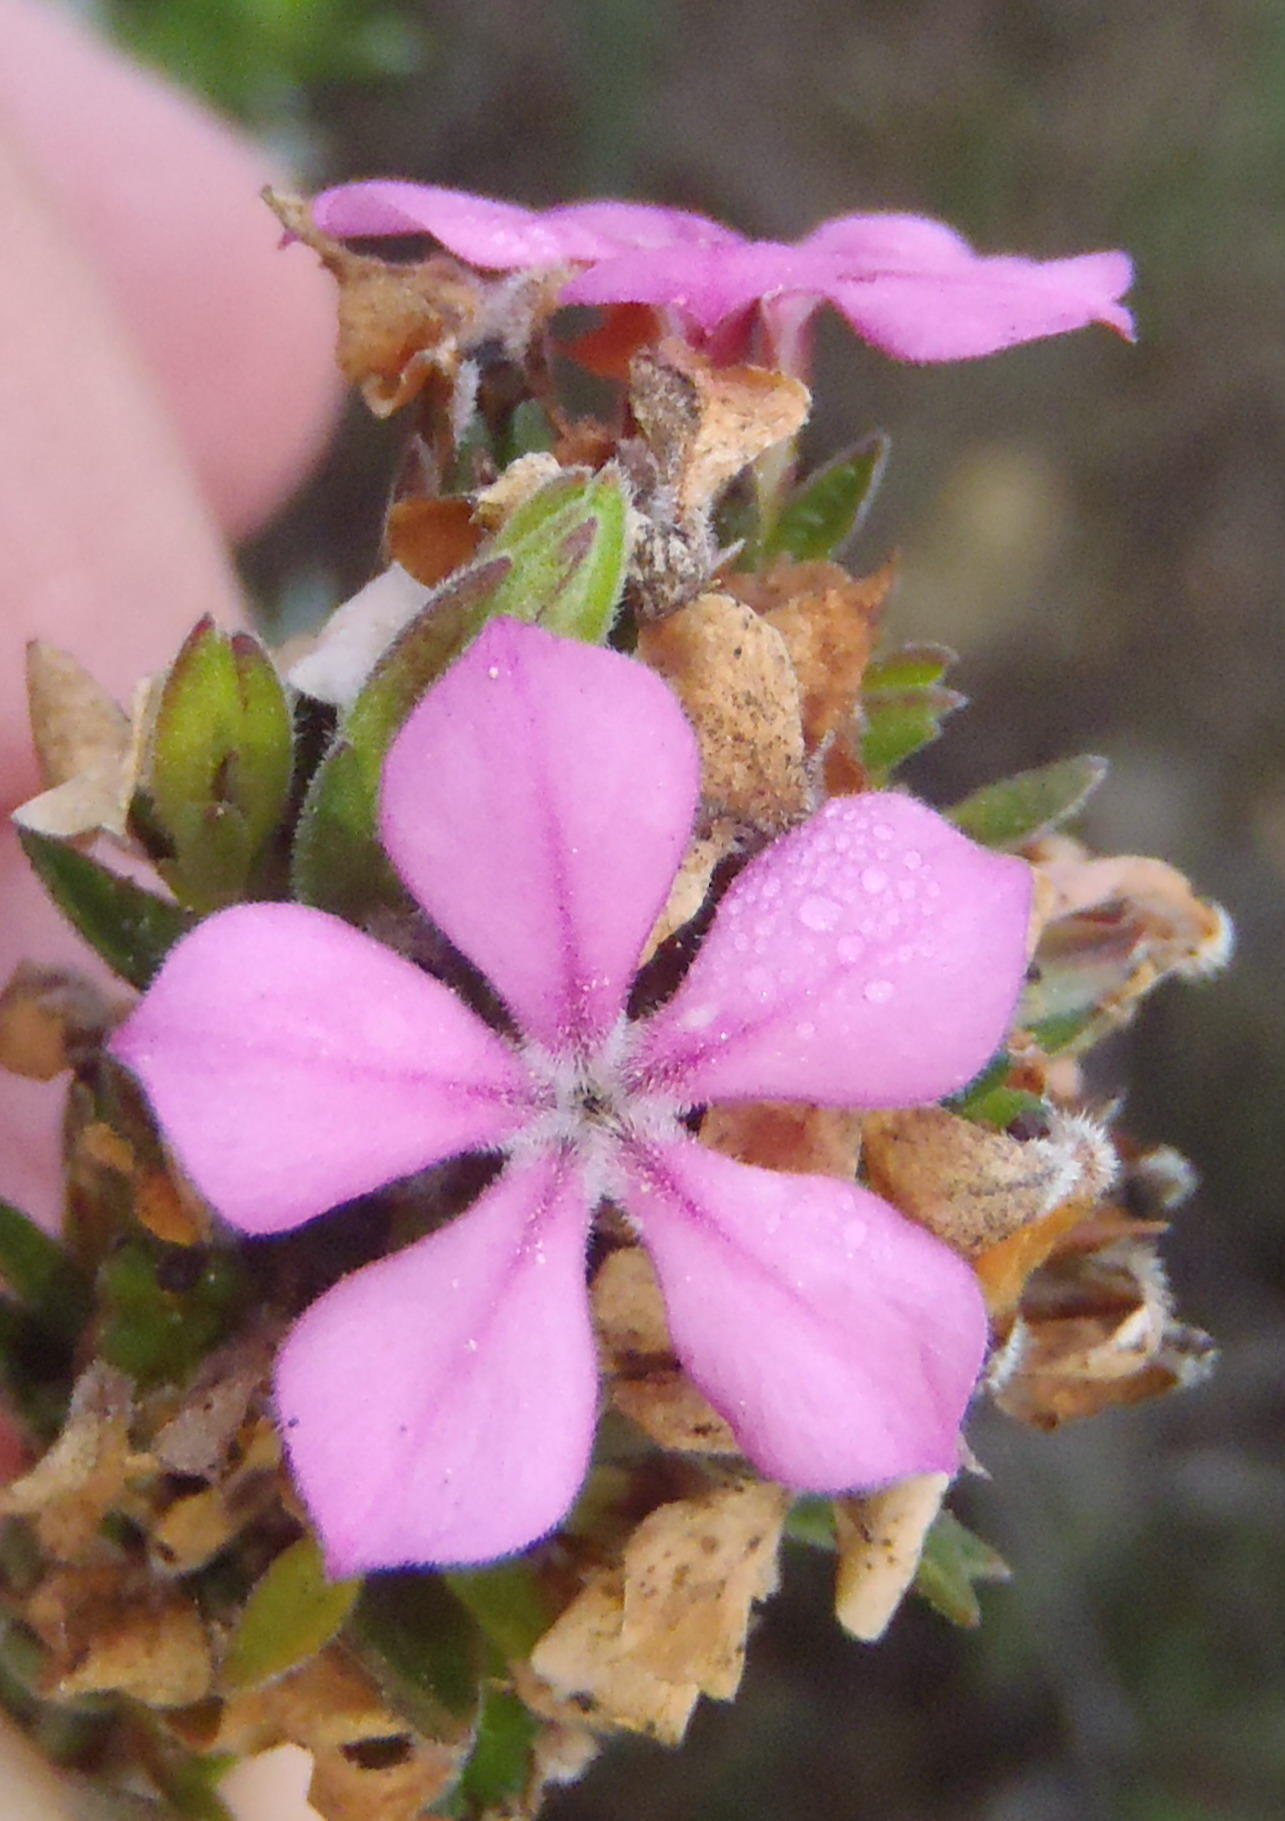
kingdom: Plantae
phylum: Tracheophyta
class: Magnoliopsida
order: Sapindales
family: Rutaceae
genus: Acmadenia
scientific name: Acmadenia densifolia
